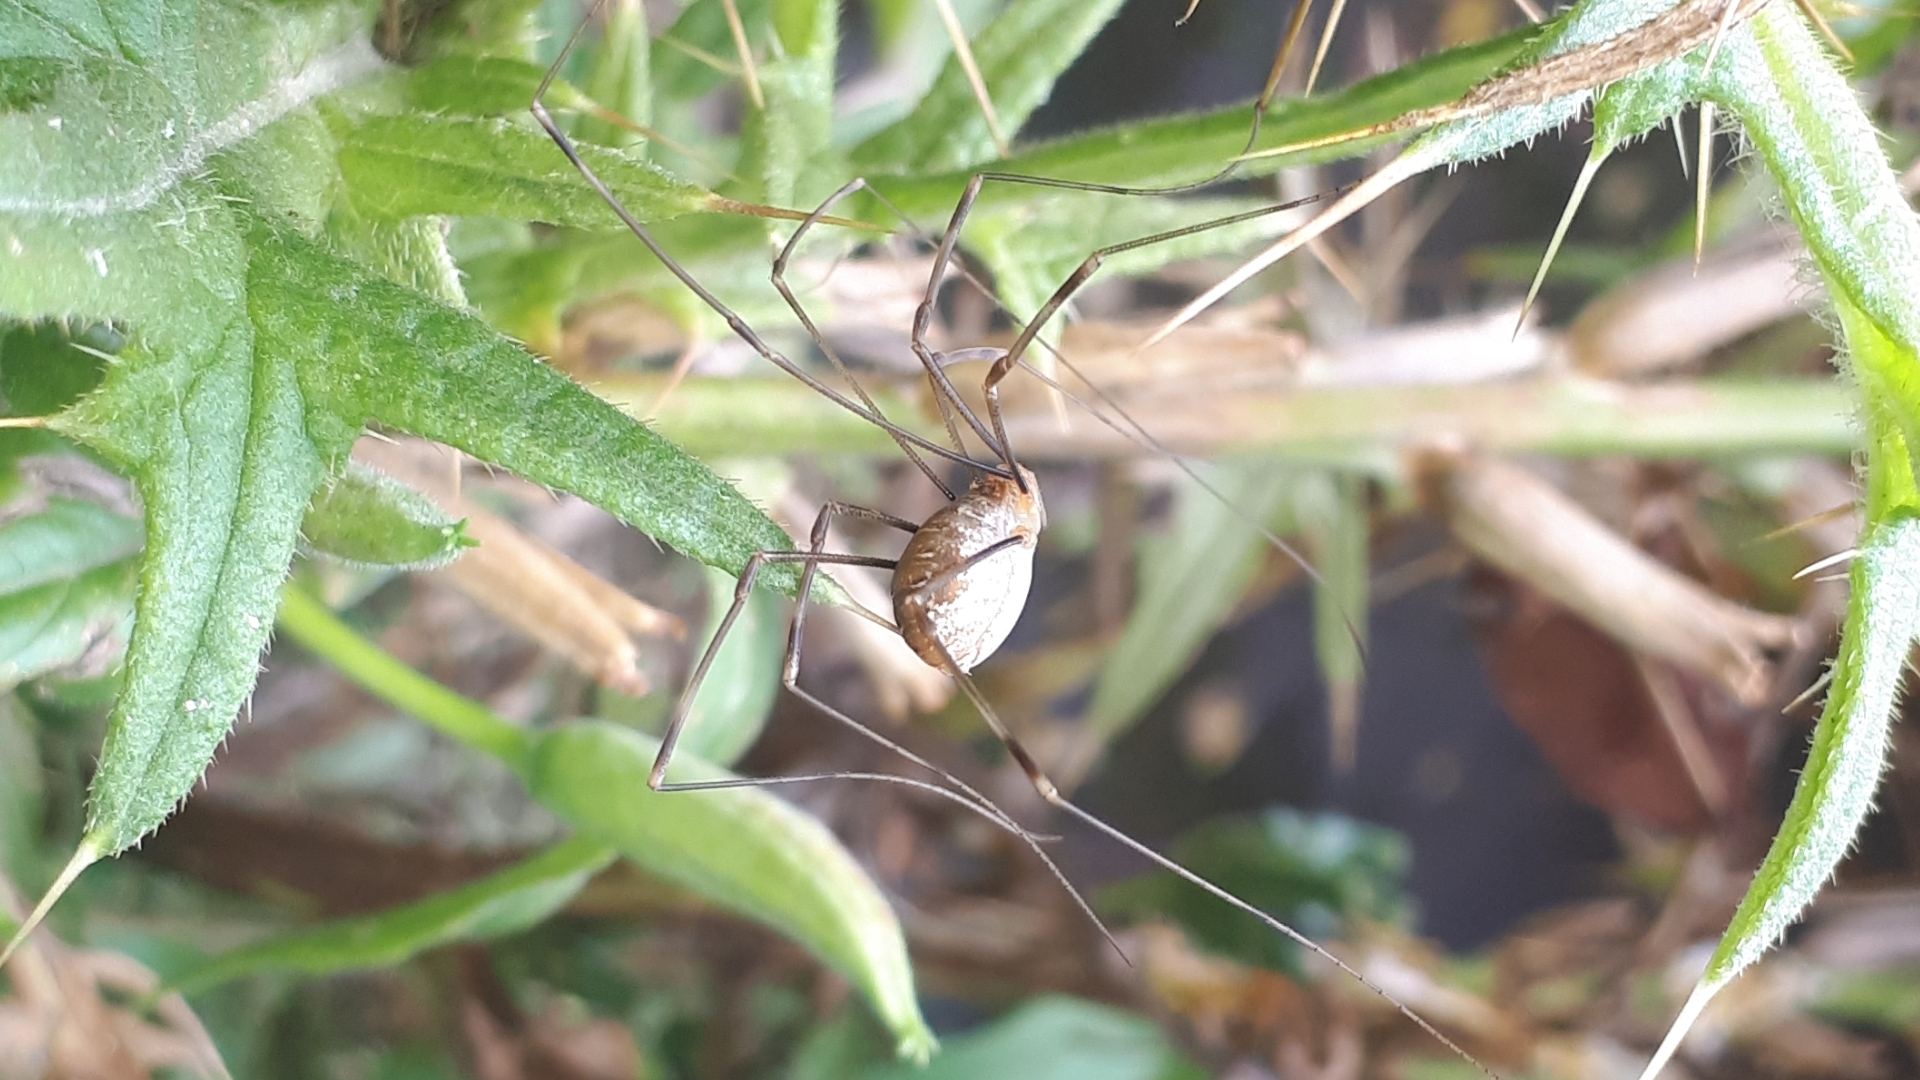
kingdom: Animalia
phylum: Arthropoda
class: Arachnida
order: Opiliones
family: Phalangiidae
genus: Opilio
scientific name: Opilio canestrinii
